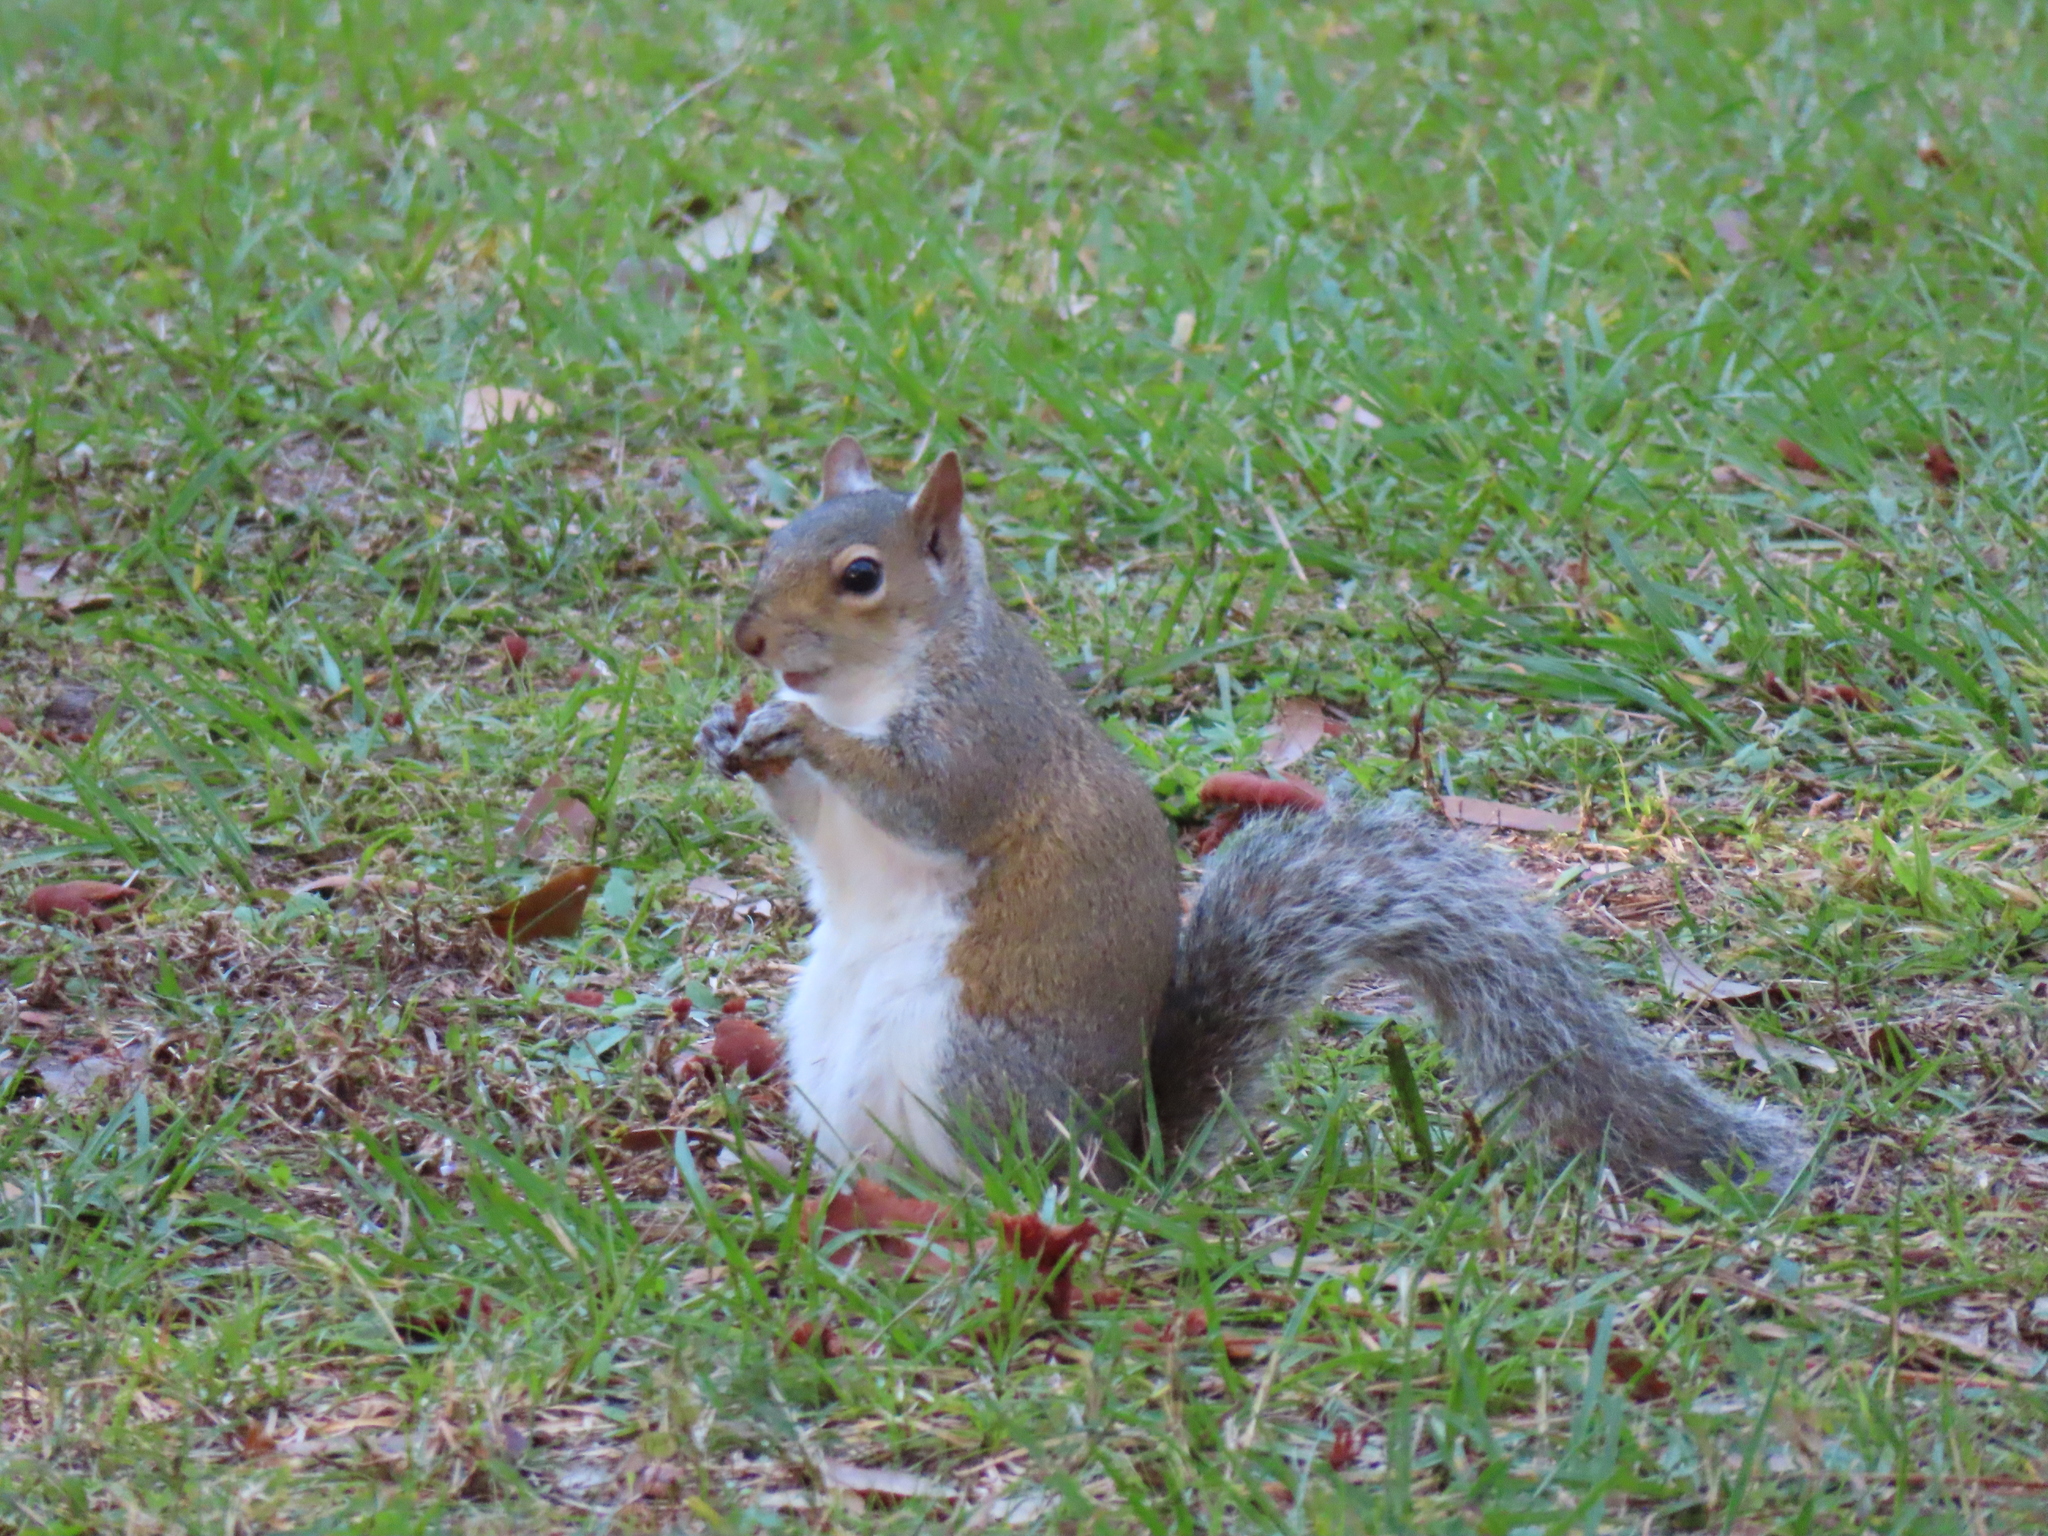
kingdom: Animalia
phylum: Chordata
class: Mammalia
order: Rodentia
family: Sciuridae
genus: Sciurus
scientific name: Sciurus carolinensis
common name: Eastern gray squirrel
